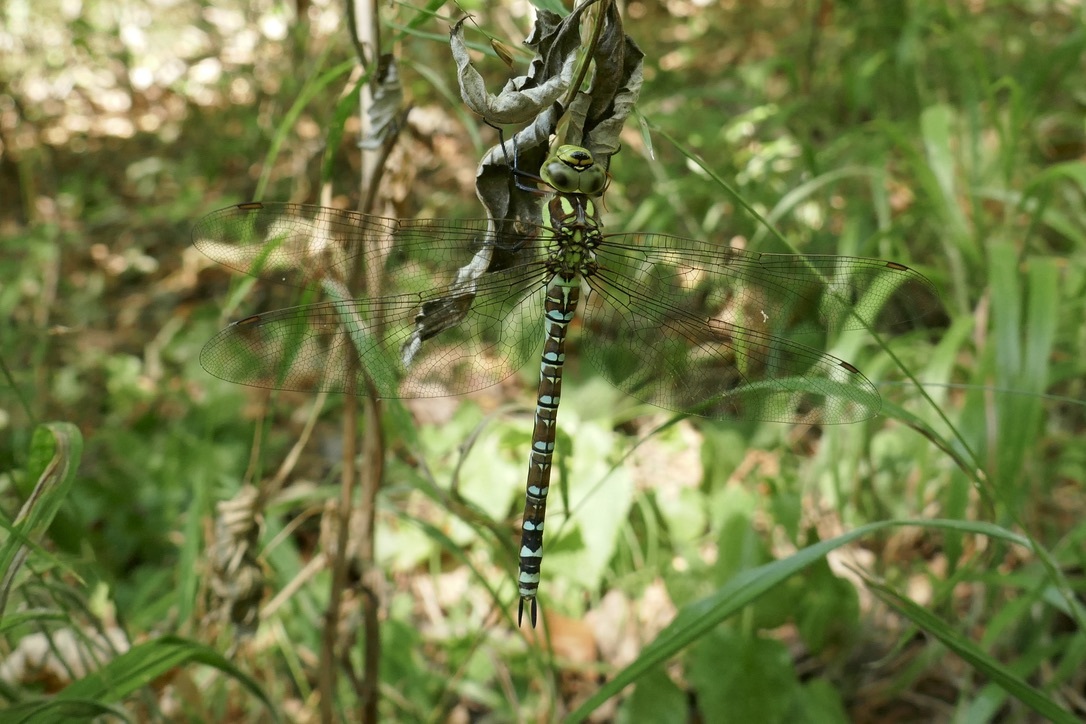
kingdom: Animalia
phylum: Arthropoda
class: Insecta
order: Odonata
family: Aeshnidae
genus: Aeshna
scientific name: Aeshna cyanea
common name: Southern hawker
